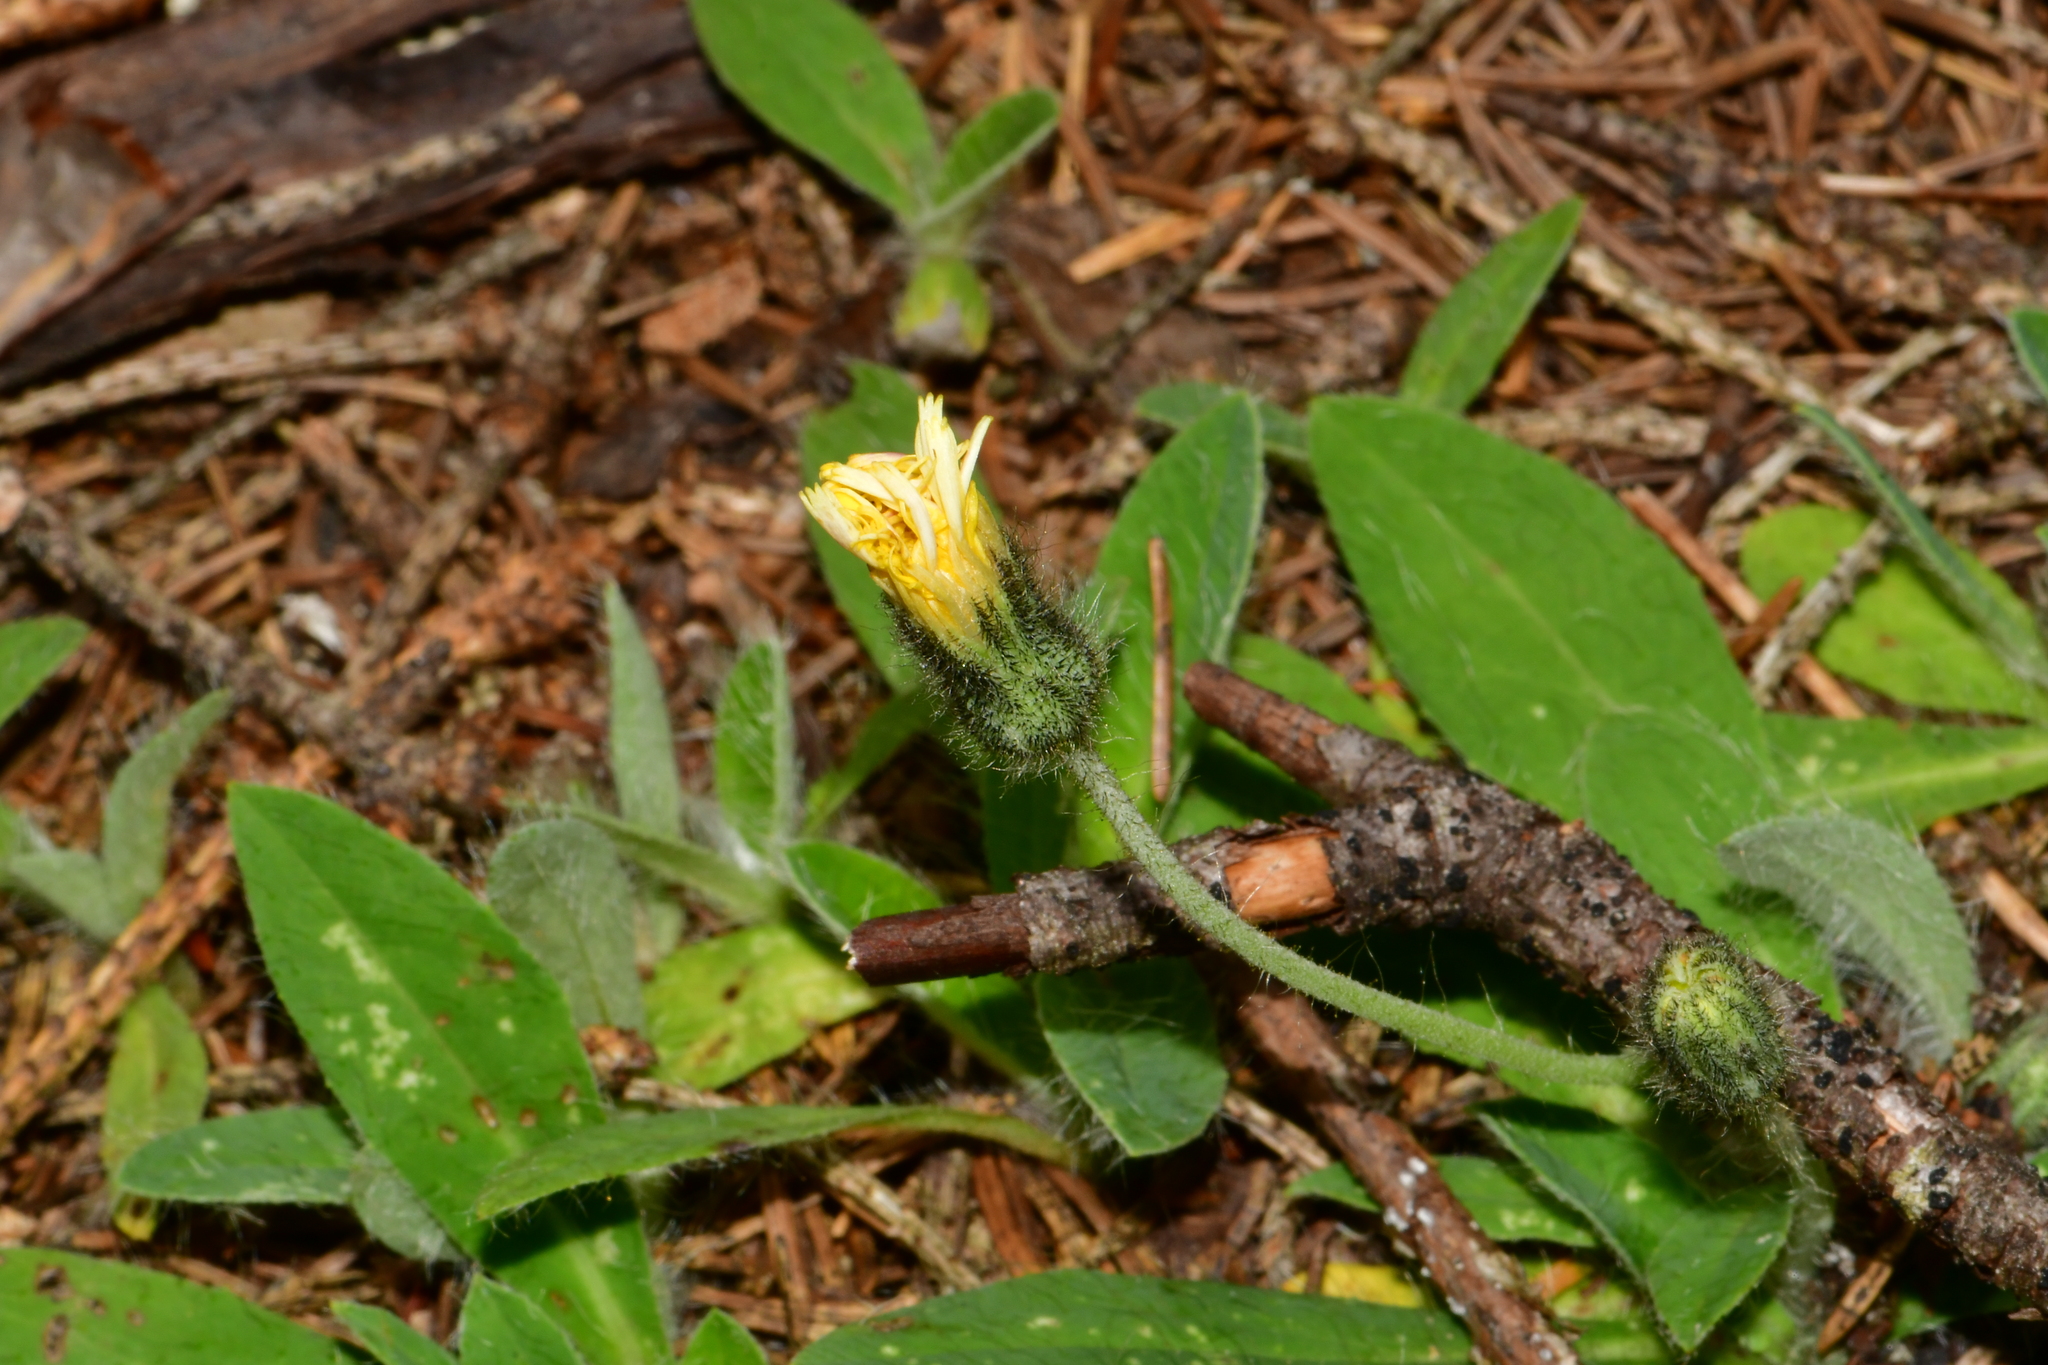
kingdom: Plantae
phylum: Tracheophyta
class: Magnoliopsida
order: Asterales
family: Asteraceae
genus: Pilosella
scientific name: Pilosella officinarum
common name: Mouse-ear hawkweed
